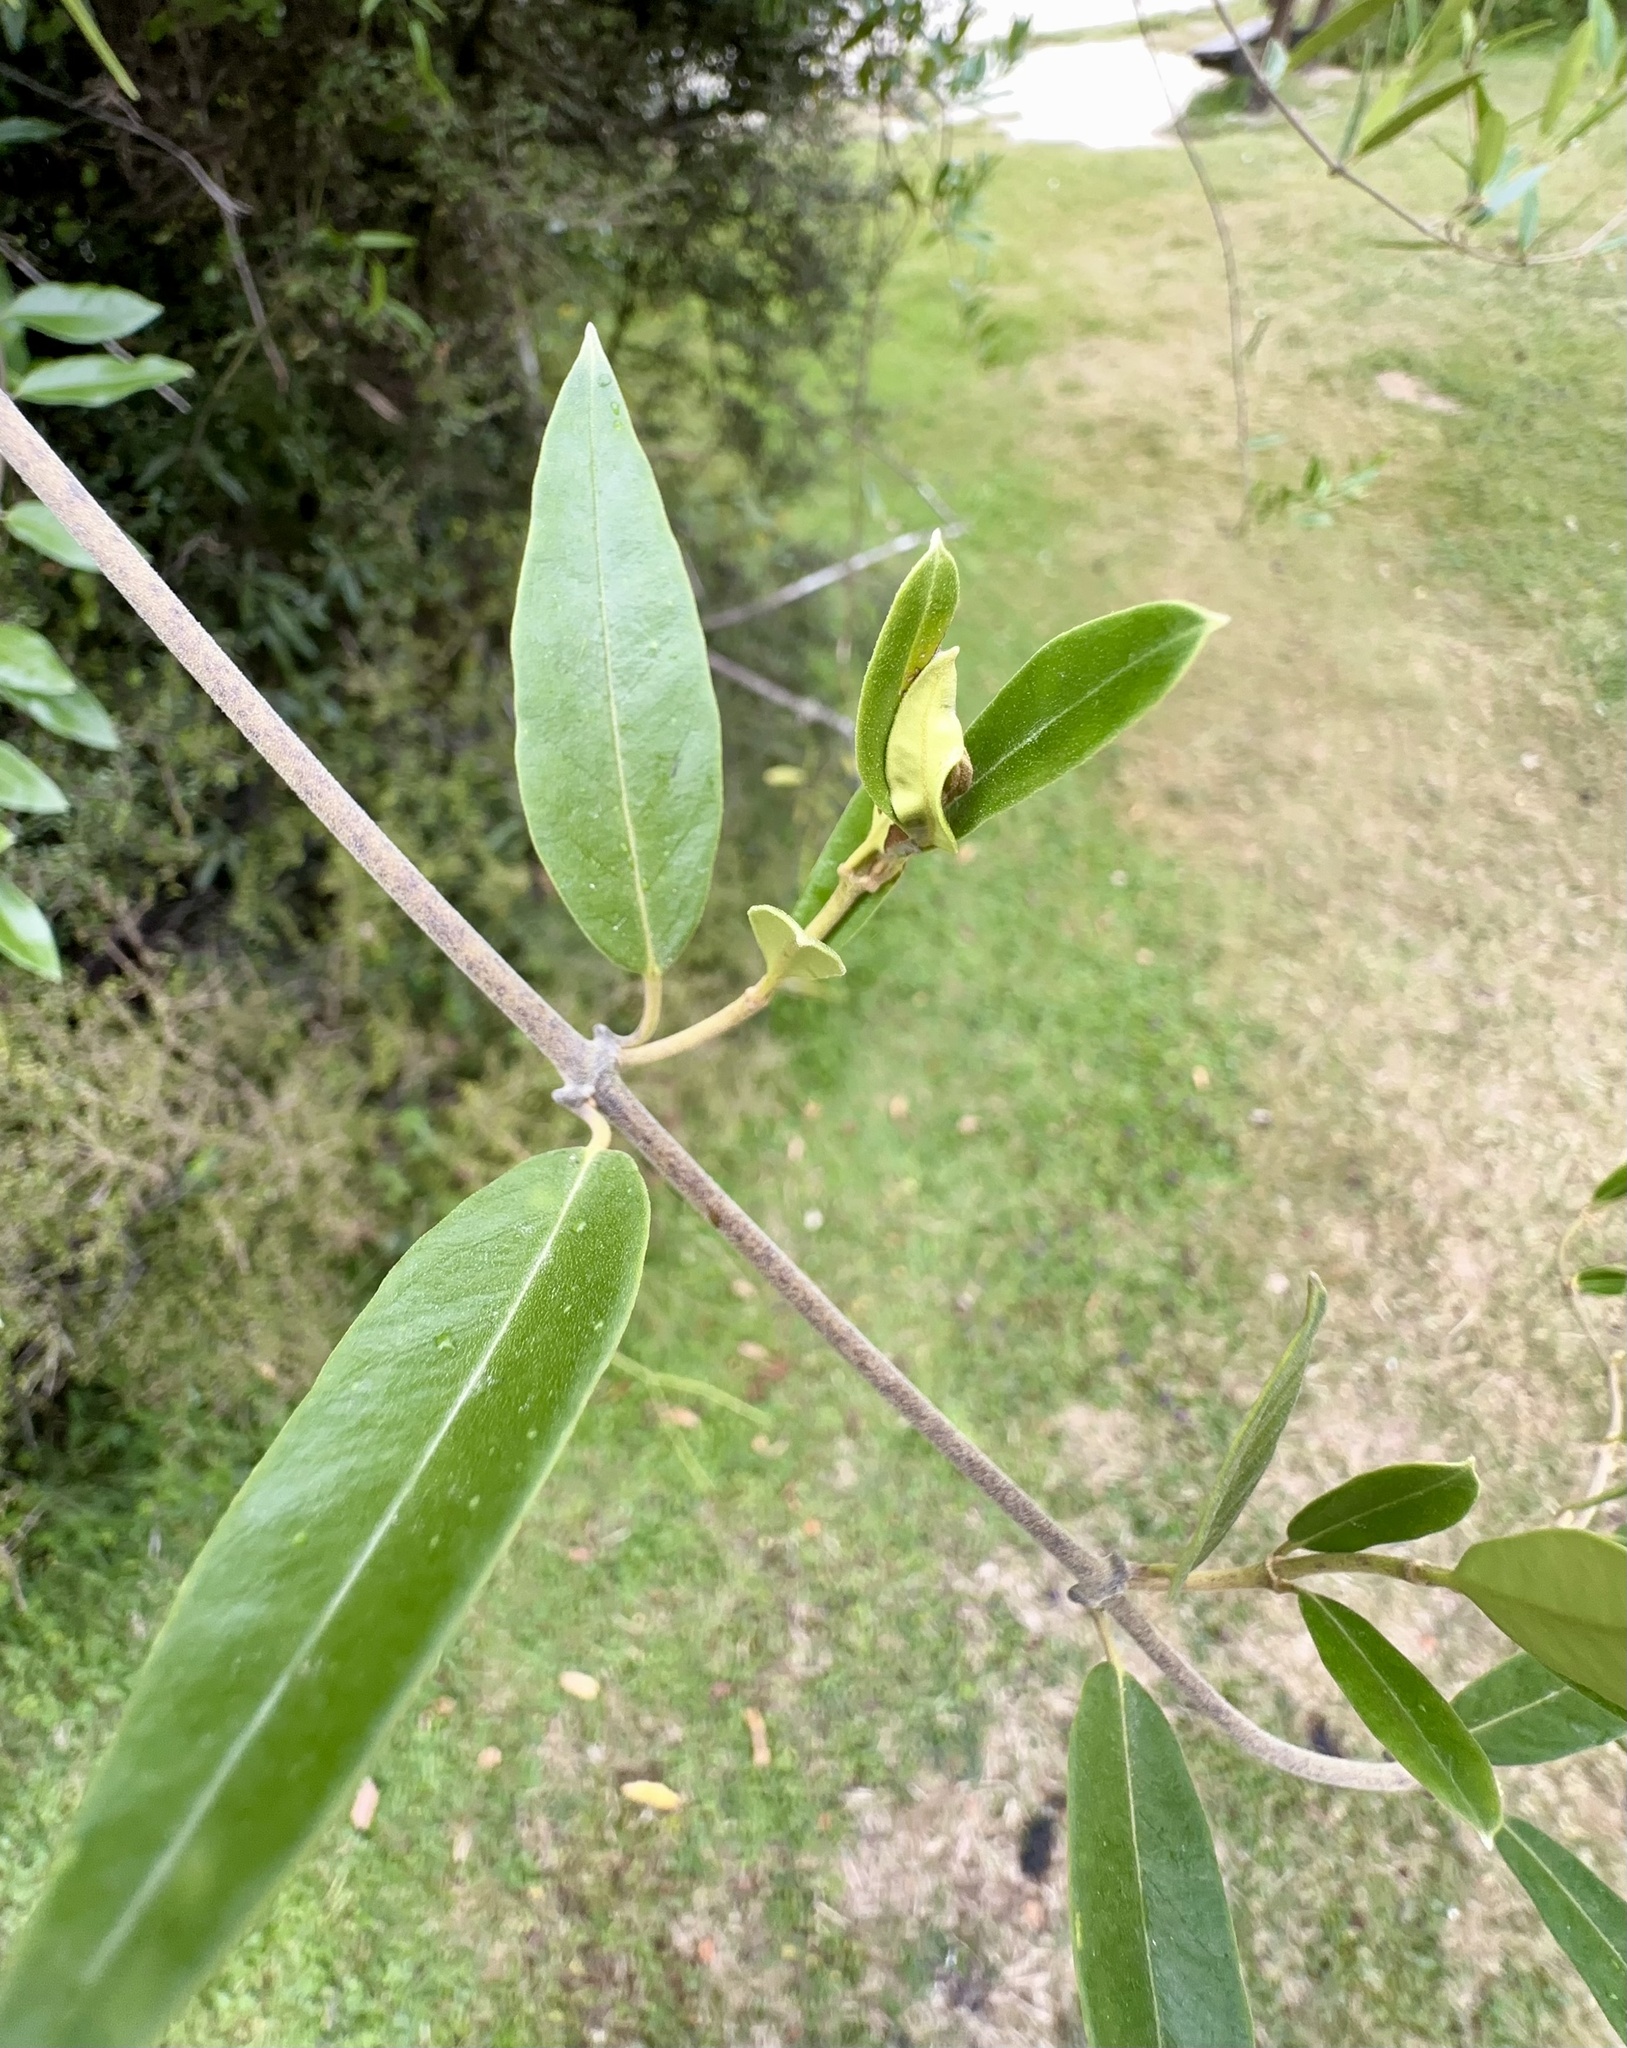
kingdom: Plantae
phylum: Tracheophyta
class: Magnoliopsida
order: Gentianales
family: Apocynaceae
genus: Parsonsia
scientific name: Parsonsia heterophylla
